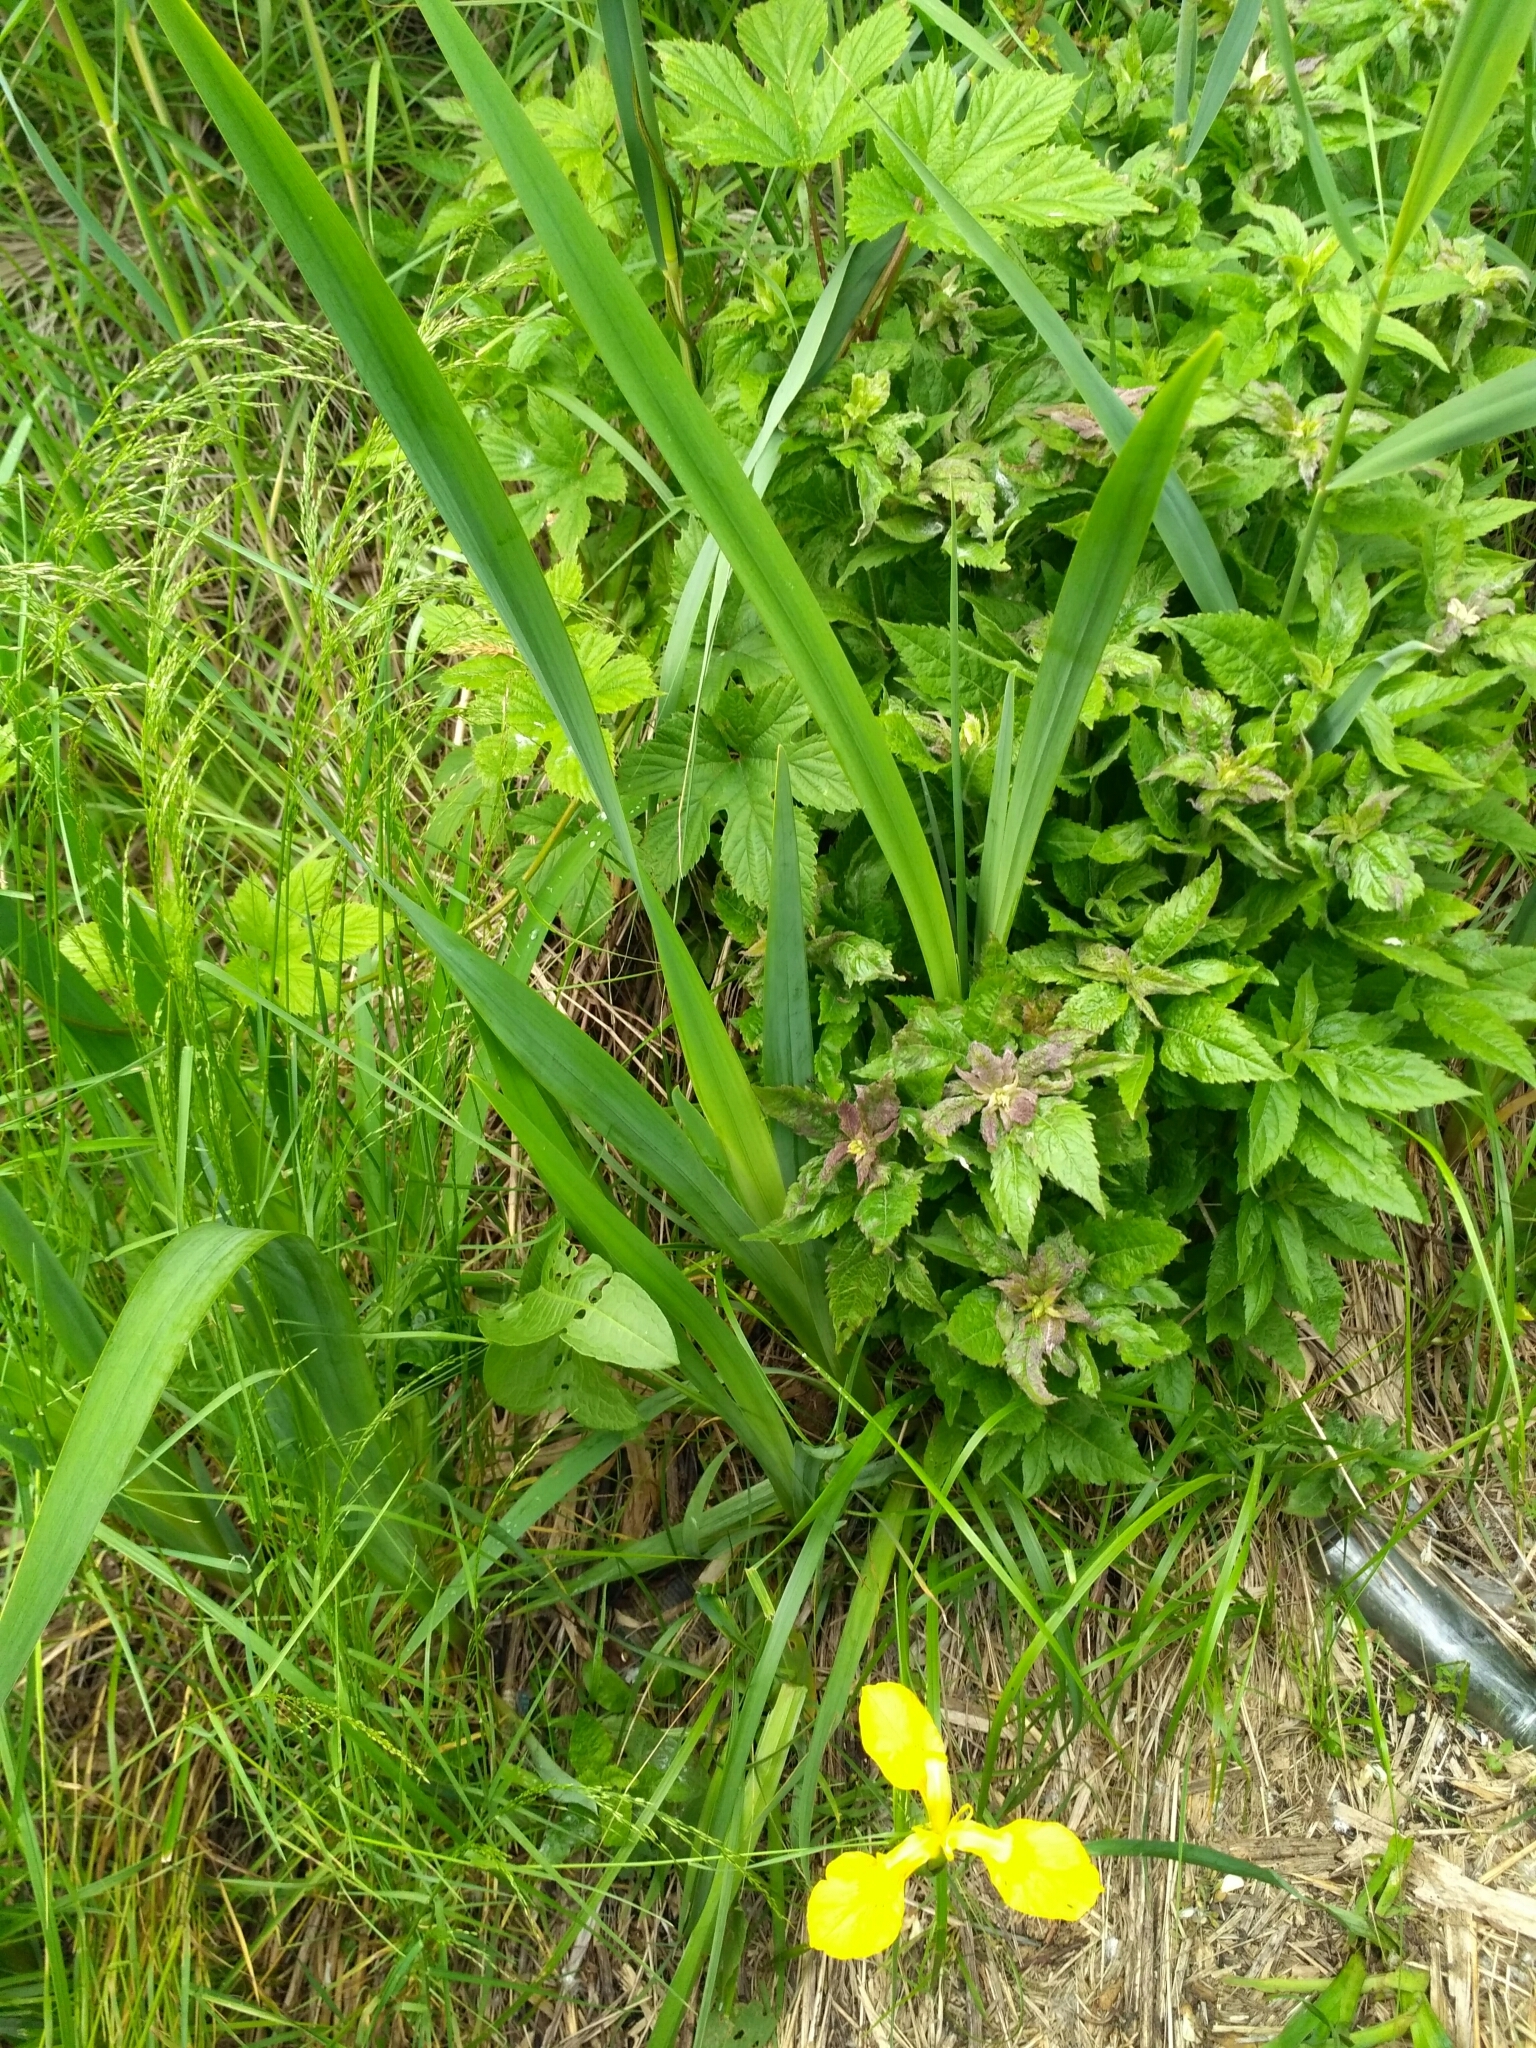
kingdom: Plantae
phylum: Tracheophyta
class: Liliopsida
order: Asparagales
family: Iridaceae
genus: Iris
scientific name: Iris pseudacorus
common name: Yellow flag
